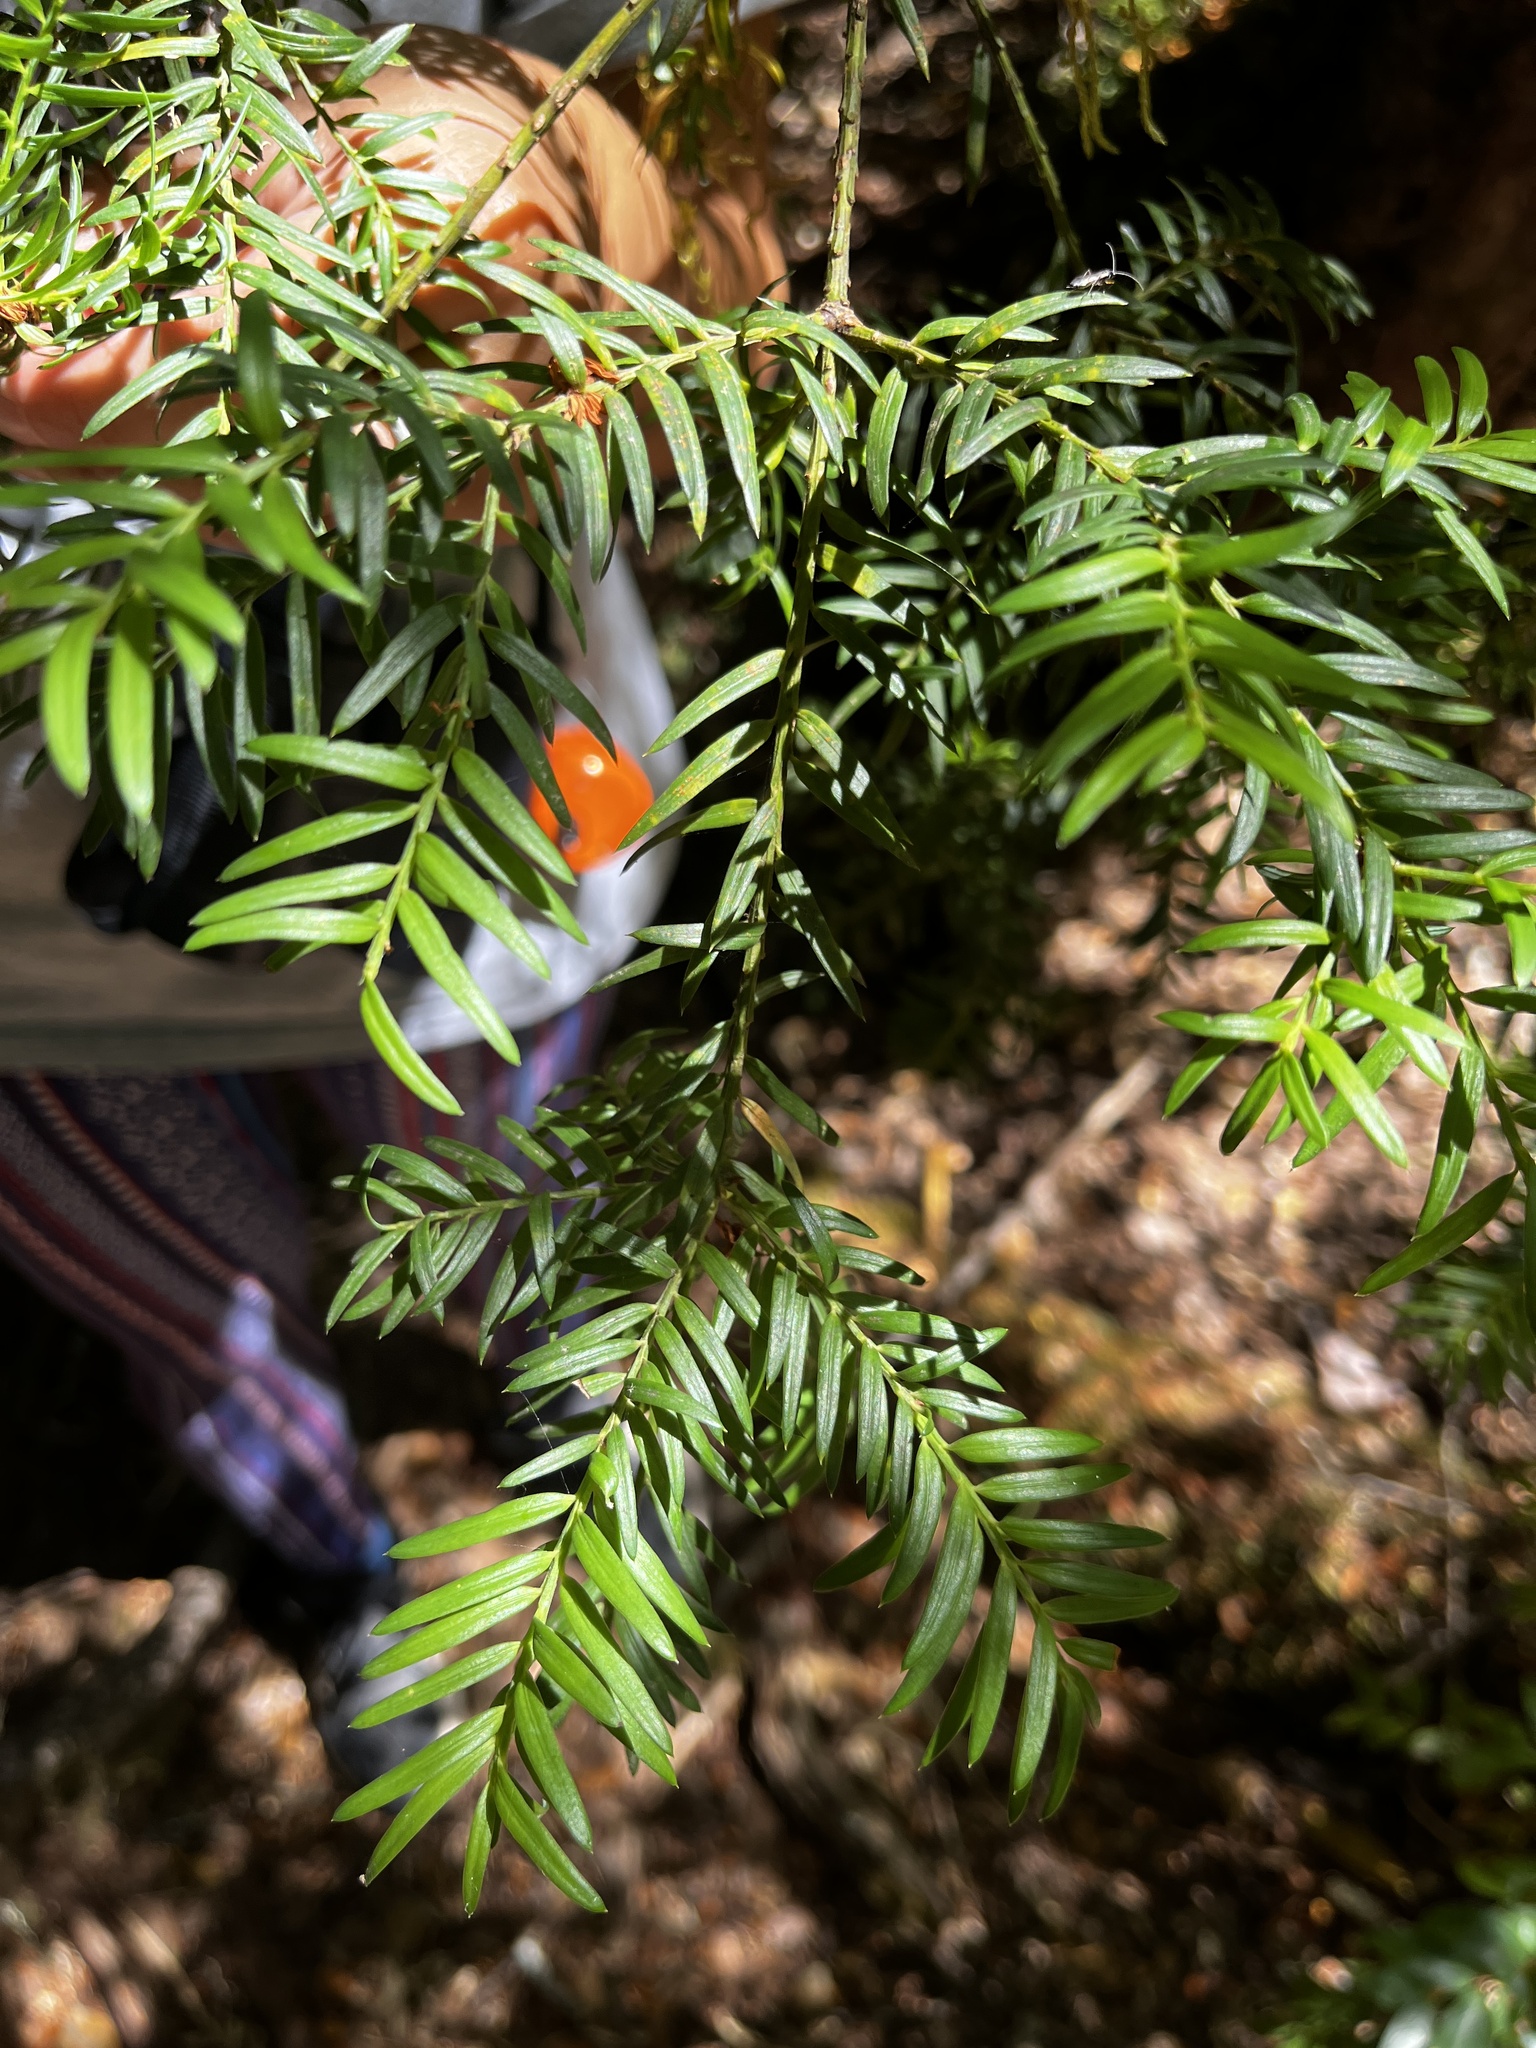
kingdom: Plantae
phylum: Tracheophyta
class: Pinopsida
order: Pinales
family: Podocarpaceae
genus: Saxegothaea
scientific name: Saxegothaea conspicua
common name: Prince albert's yew
